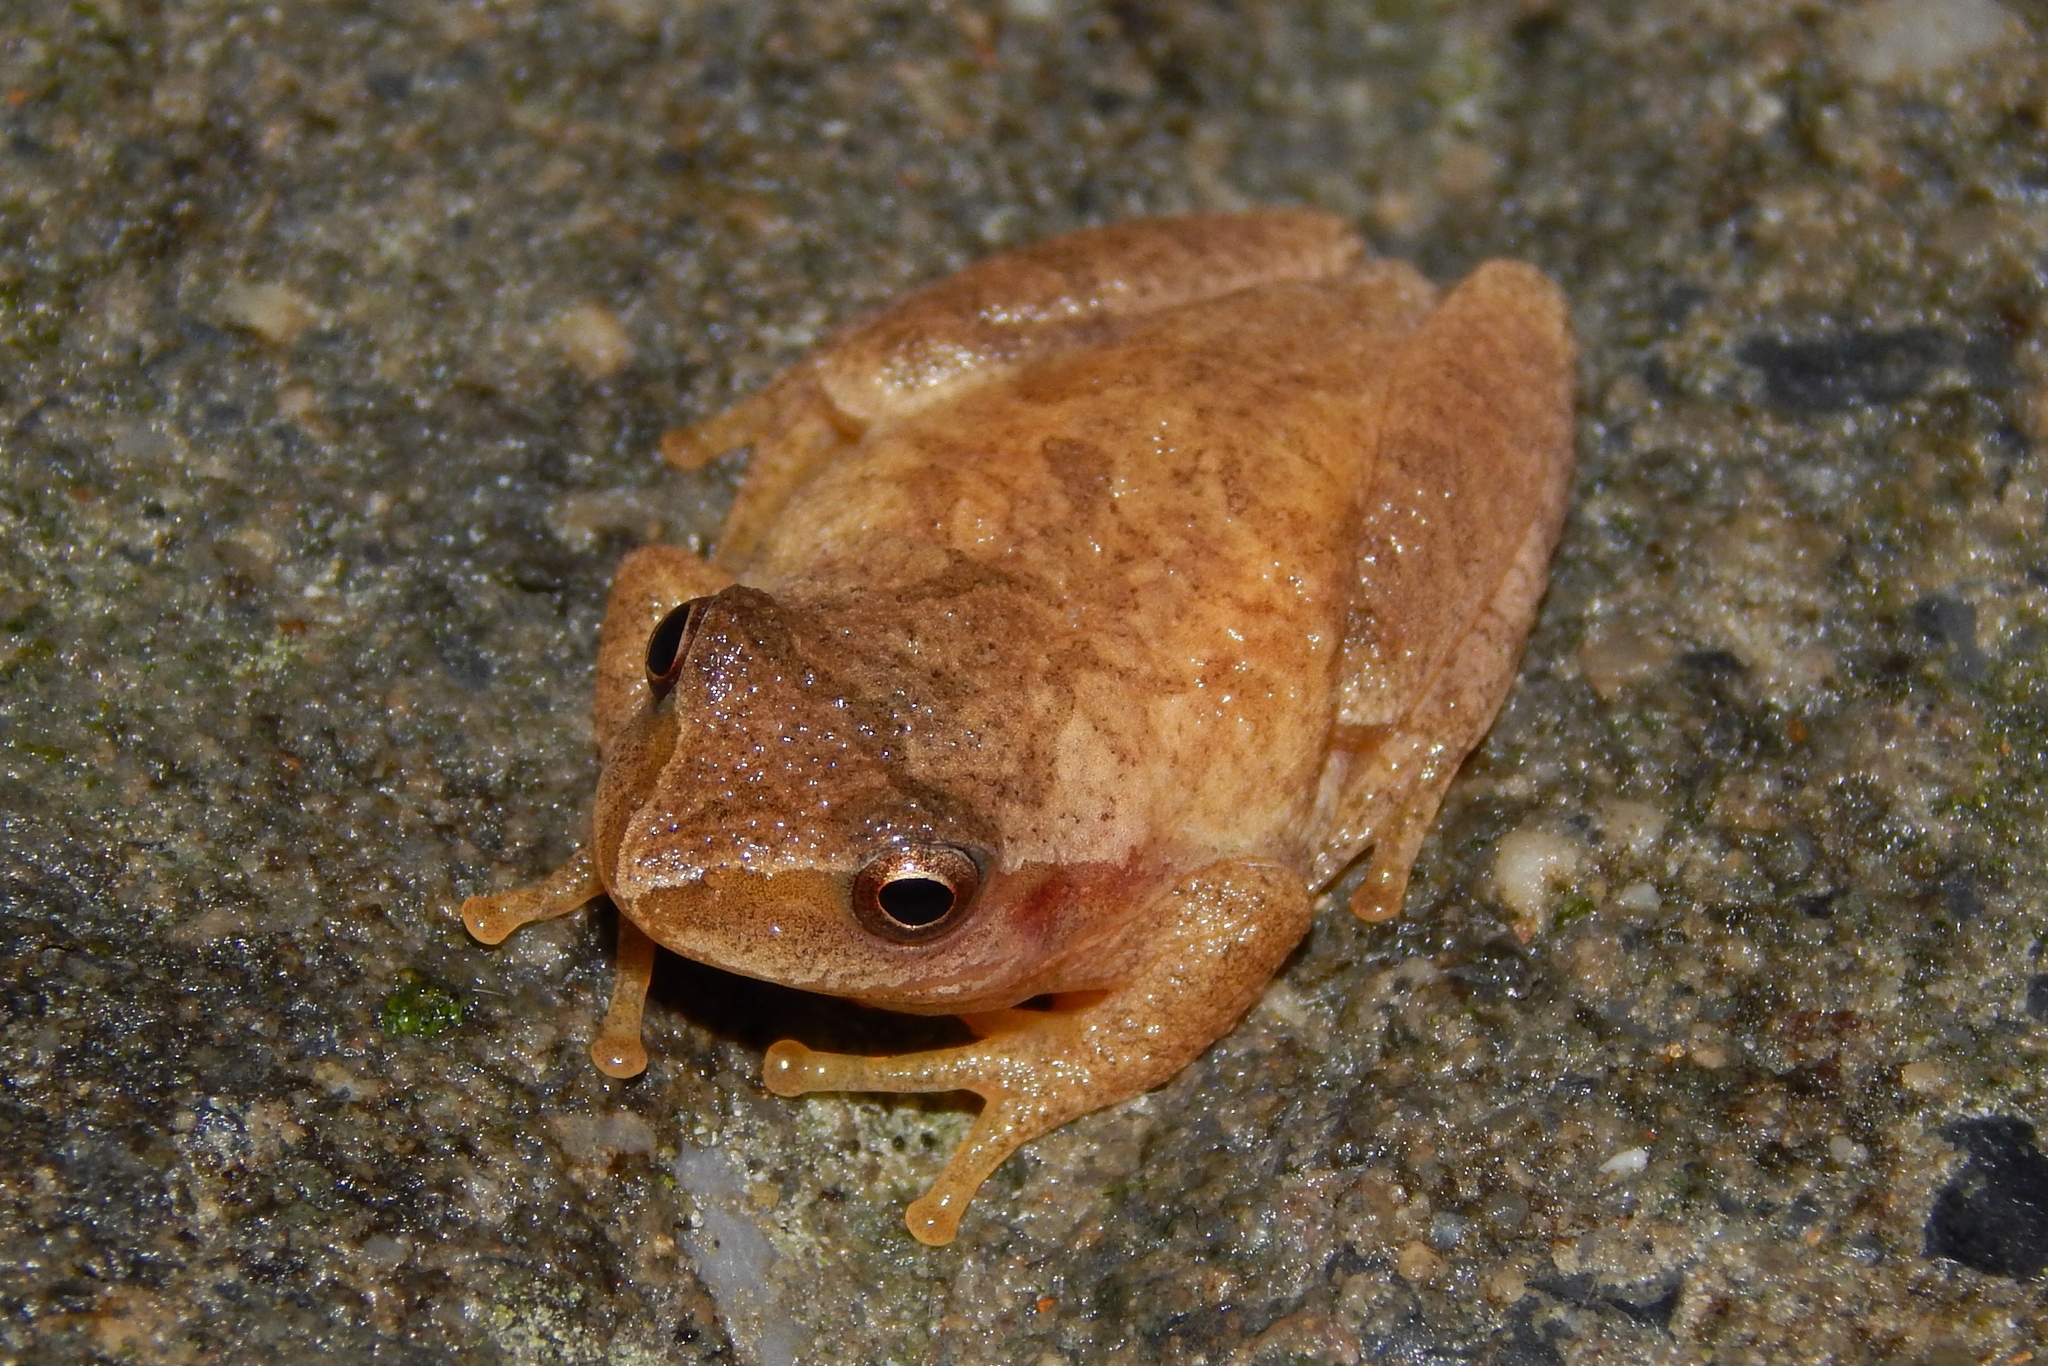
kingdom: Animalia
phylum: Chordata
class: Amphibia
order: Anura
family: Hylidae
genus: Pseudacris
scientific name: Pseudacris crucifer
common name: Spring peeper
